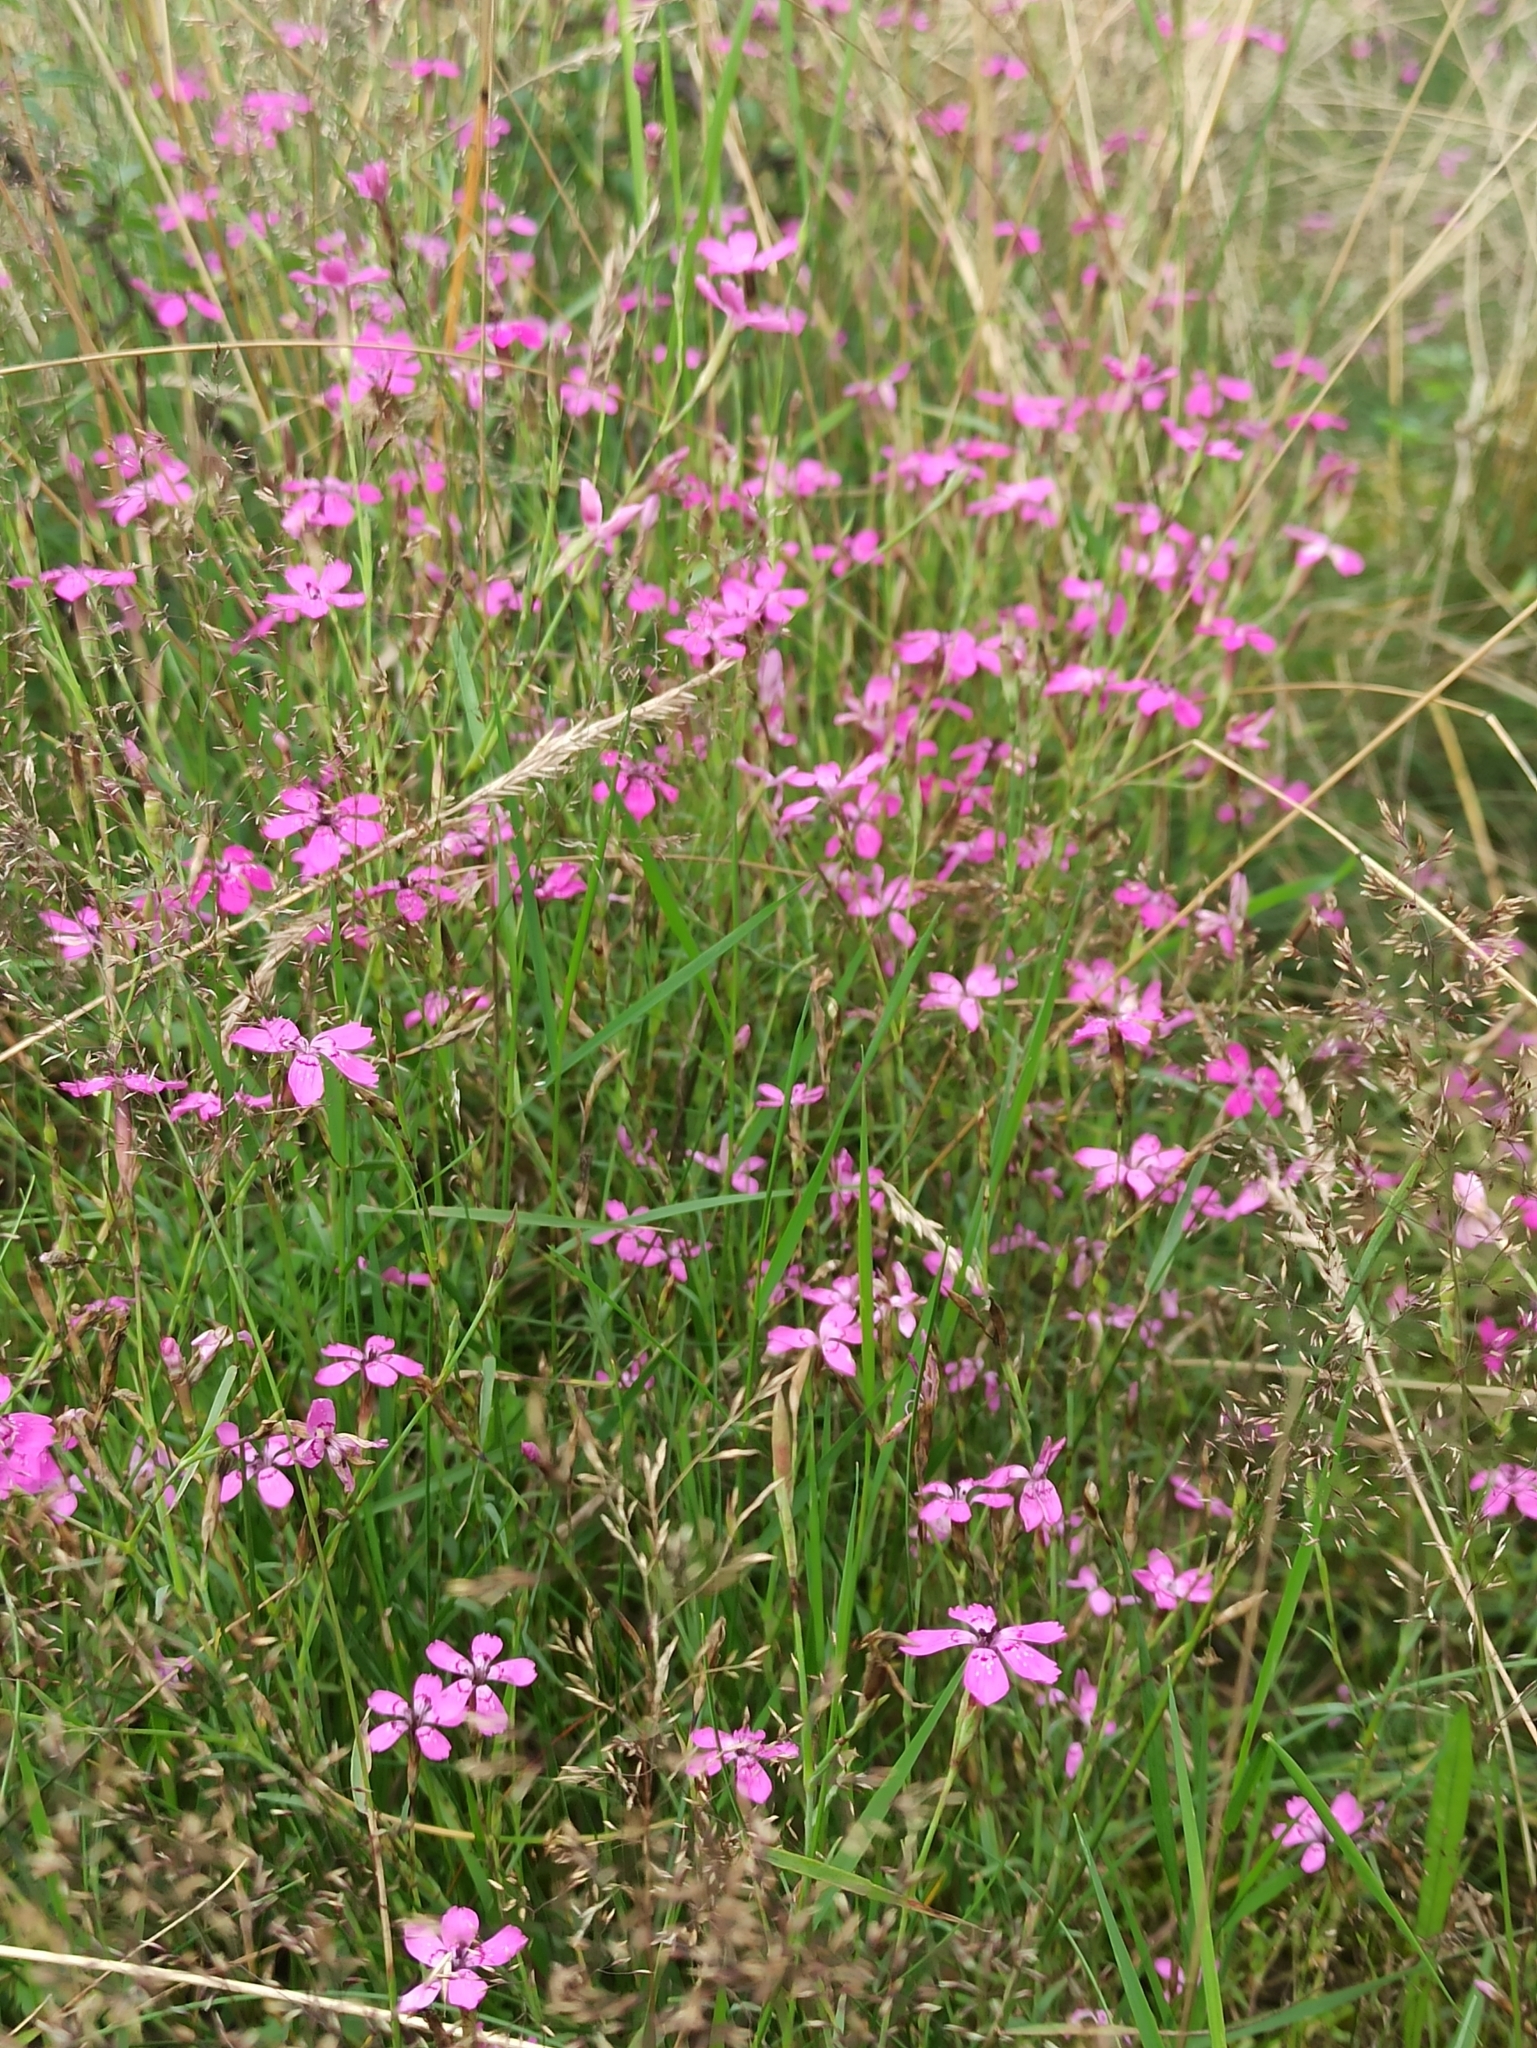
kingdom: Plantae
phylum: Tracheophyta
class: Magnoliopsida
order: Caryophyllales
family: Caryophyllaceae
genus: Dianthus
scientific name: Dianthus deltoides
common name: Maiden pink
